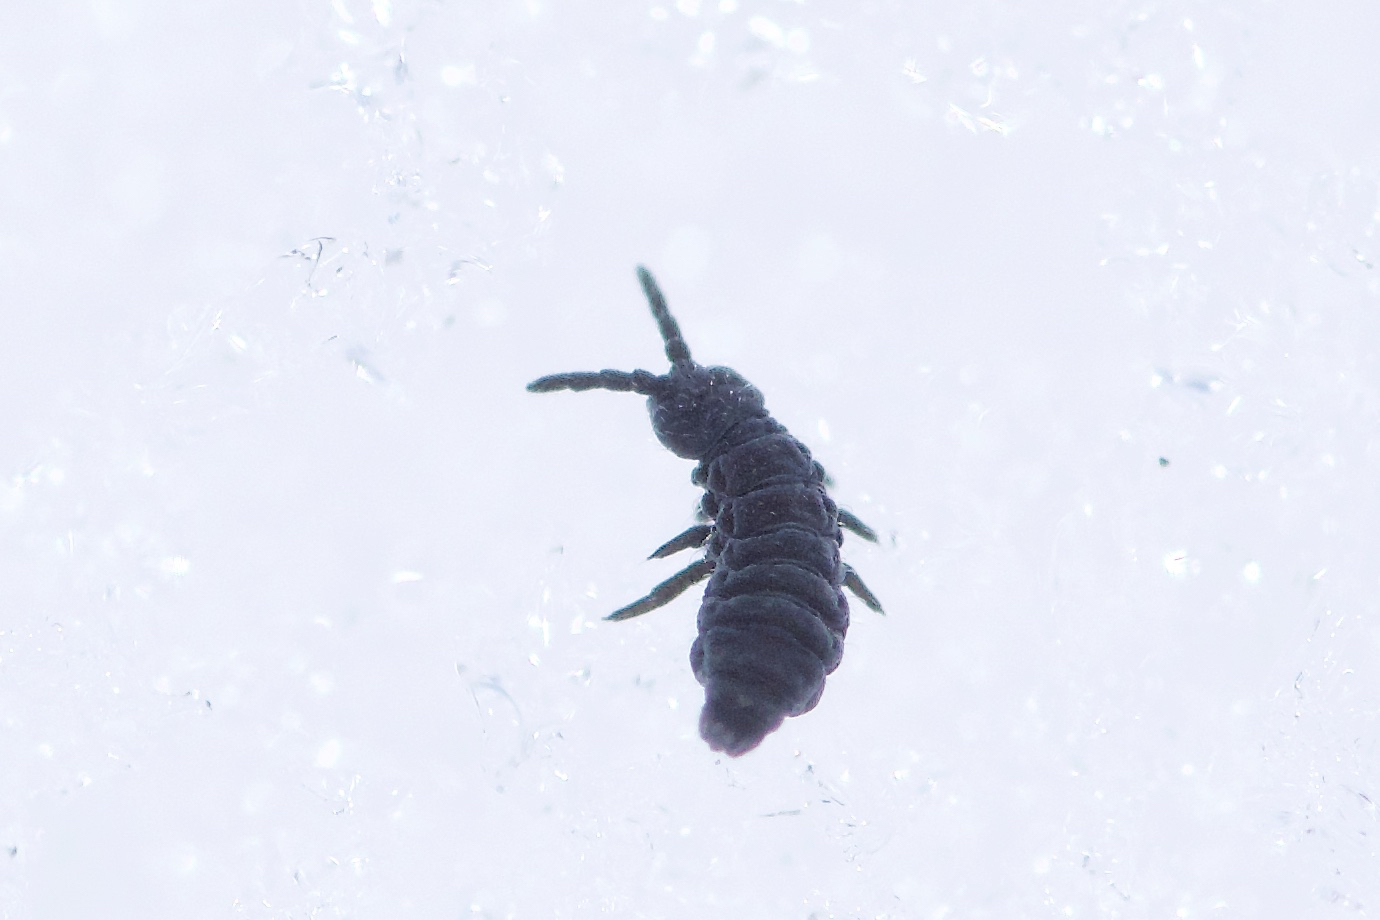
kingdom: Animalia
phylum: Arthropoda
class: Collembola
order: Poduromorpha
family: Hypogastruridae
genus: Hypogastrura
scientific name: Hypogastrura harveyi
